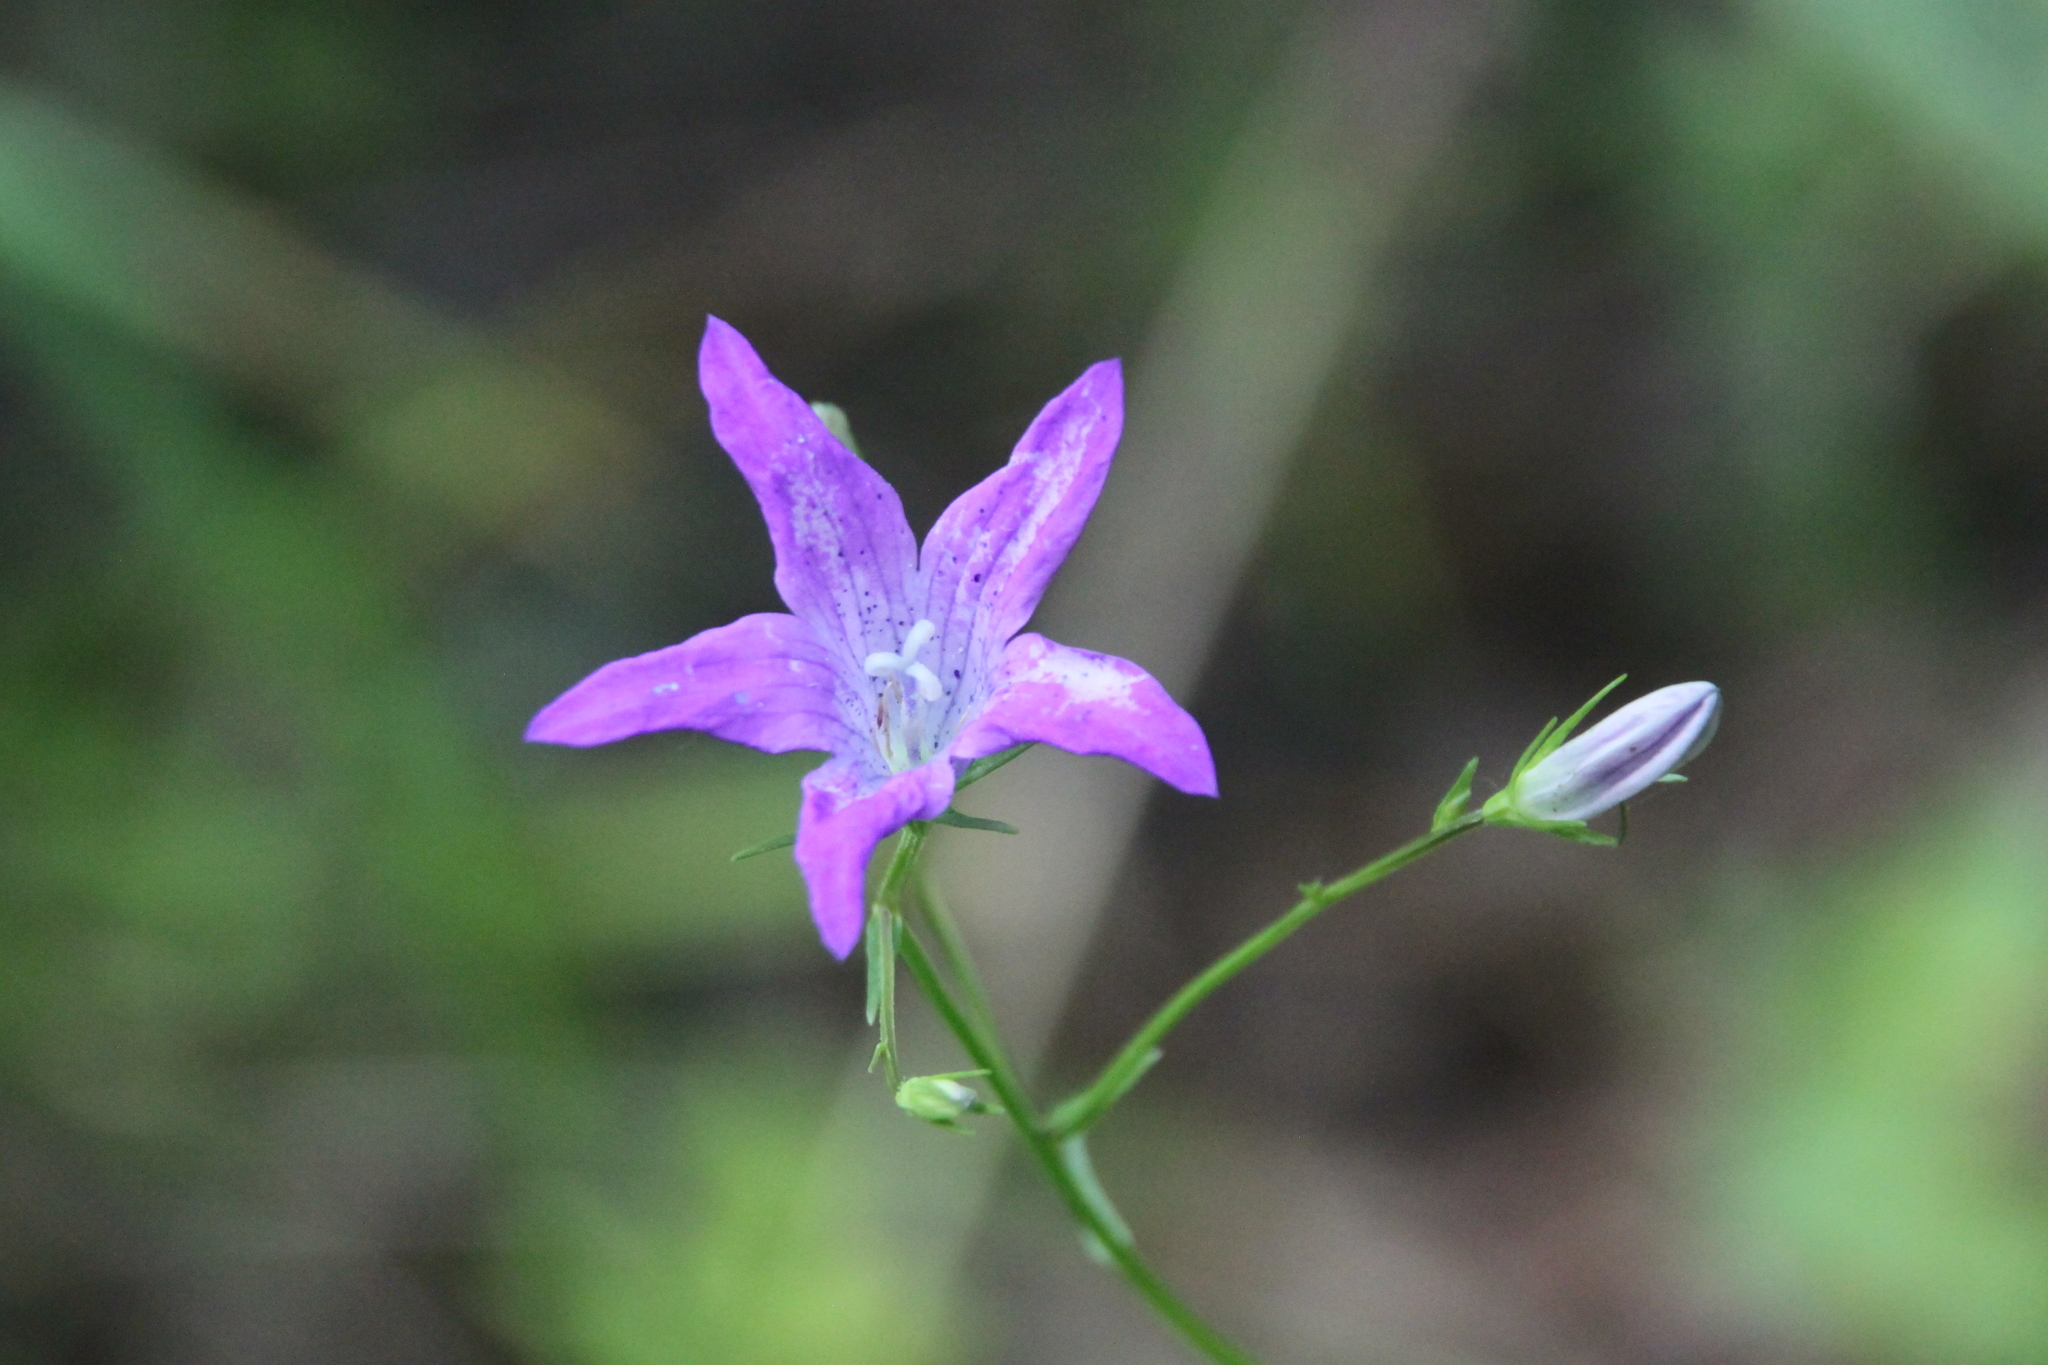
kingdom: Plantae
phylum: Tracheophyta
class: Magnoliopsida
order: Asterales
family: Campanulaceae
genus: Campanula
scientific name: Campanula patula
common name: Spreading bellflower
